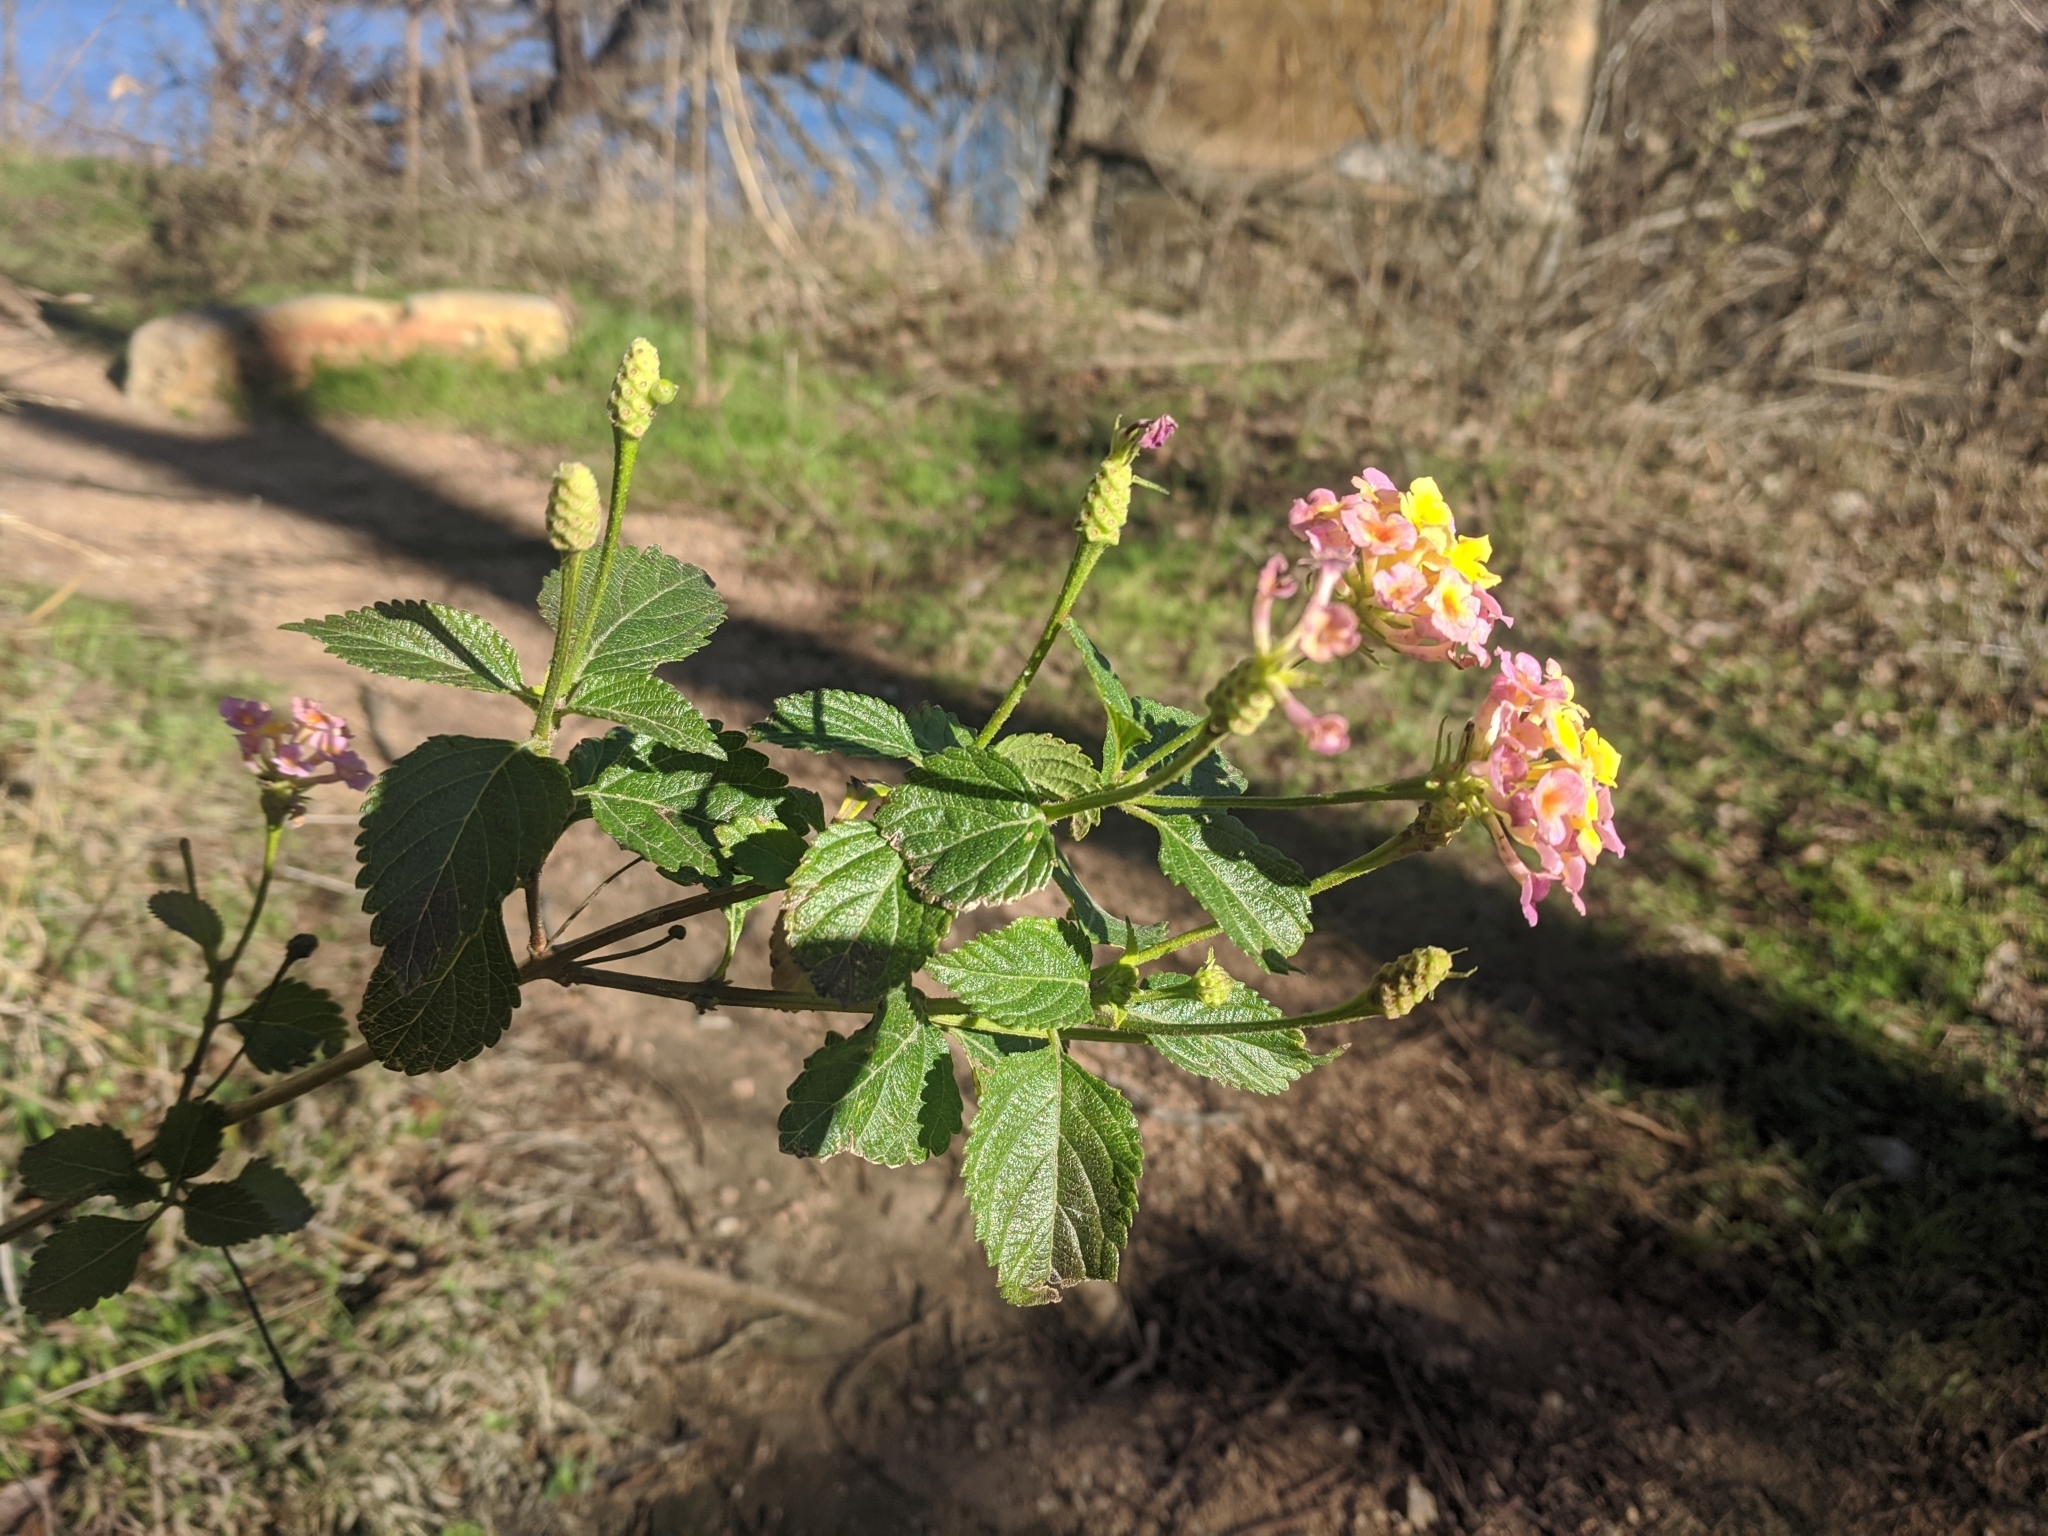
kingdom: Plantae
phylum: Tracheophyta
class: Magnoliopsida
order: Lamiales
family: Verbenaceae
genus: Lantana
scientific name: Lantana strigocamara
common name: Lantana
